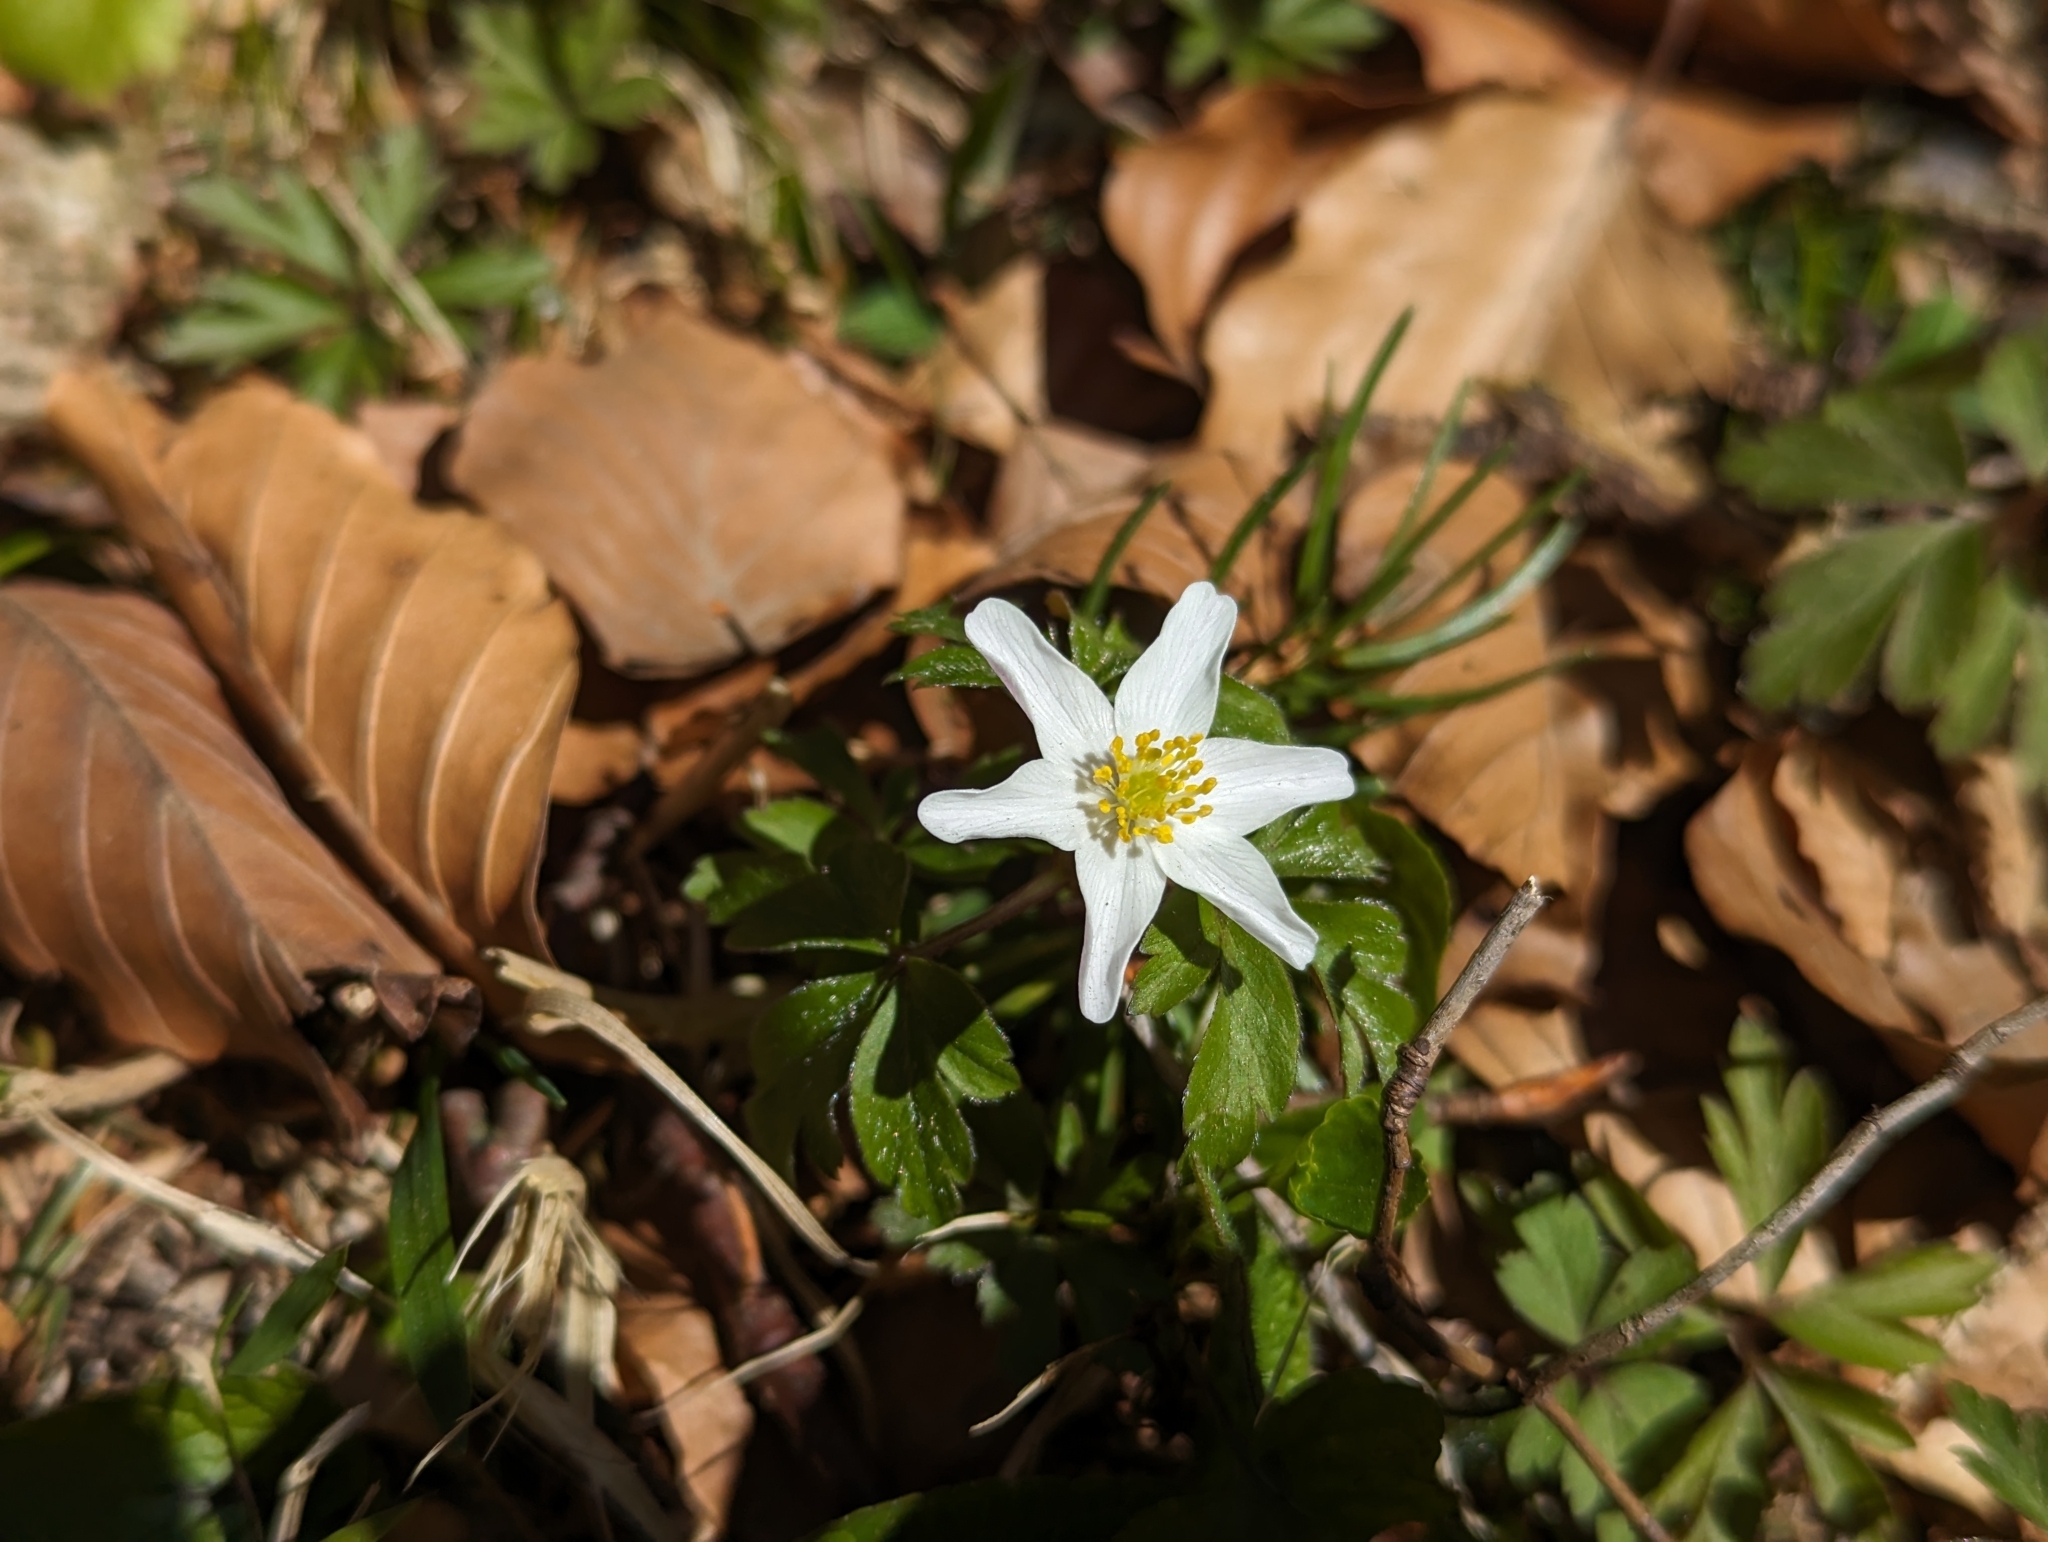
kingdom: Plantae
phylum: Tracheophyta
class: Magnoliopsida
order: Ranunculales
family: Ranunculaceae
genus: Anemone
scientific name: Anemone nemorosa
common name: Wood anemone
